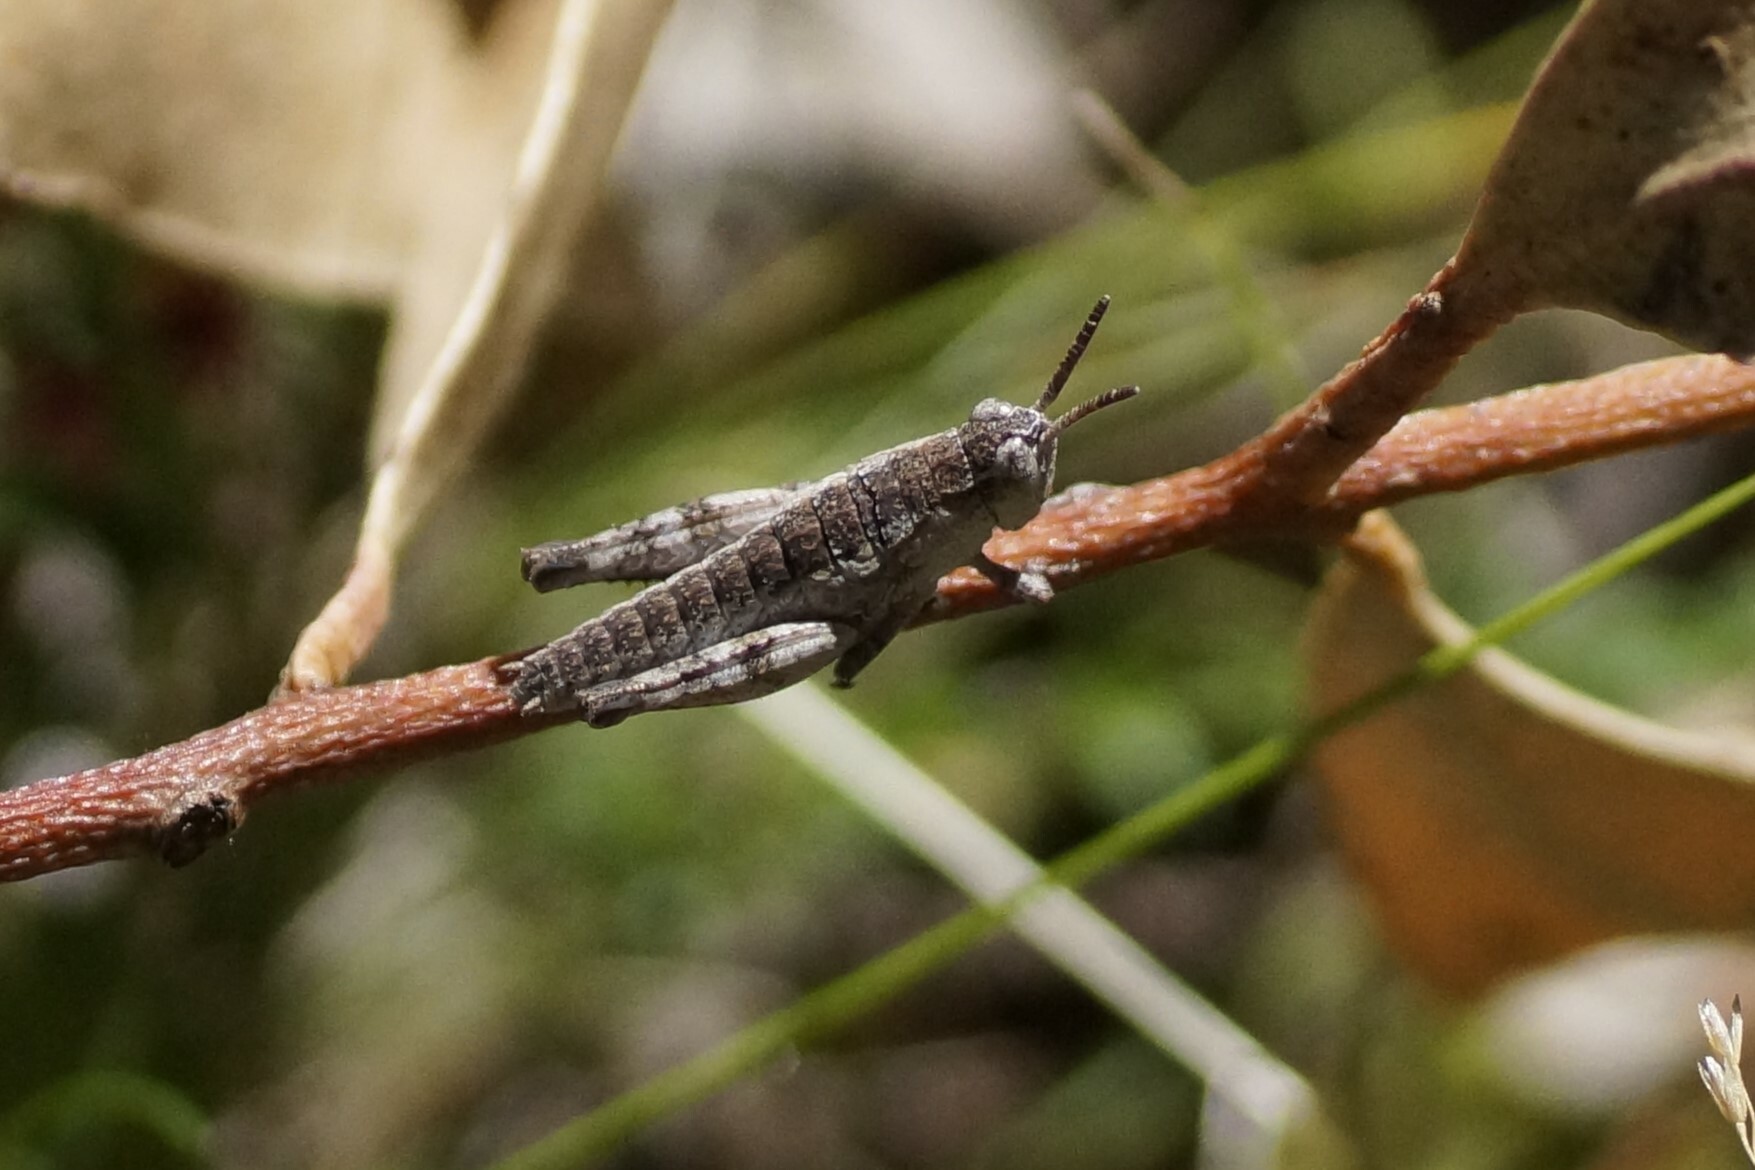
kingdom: Animalia
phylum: Arthropoda
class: Insecta
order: Orthoptera
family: Acrididae
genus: Tasmaniacris
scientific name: Tasmaniacris tasmaniensis
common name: Tasmanian grasshopper
